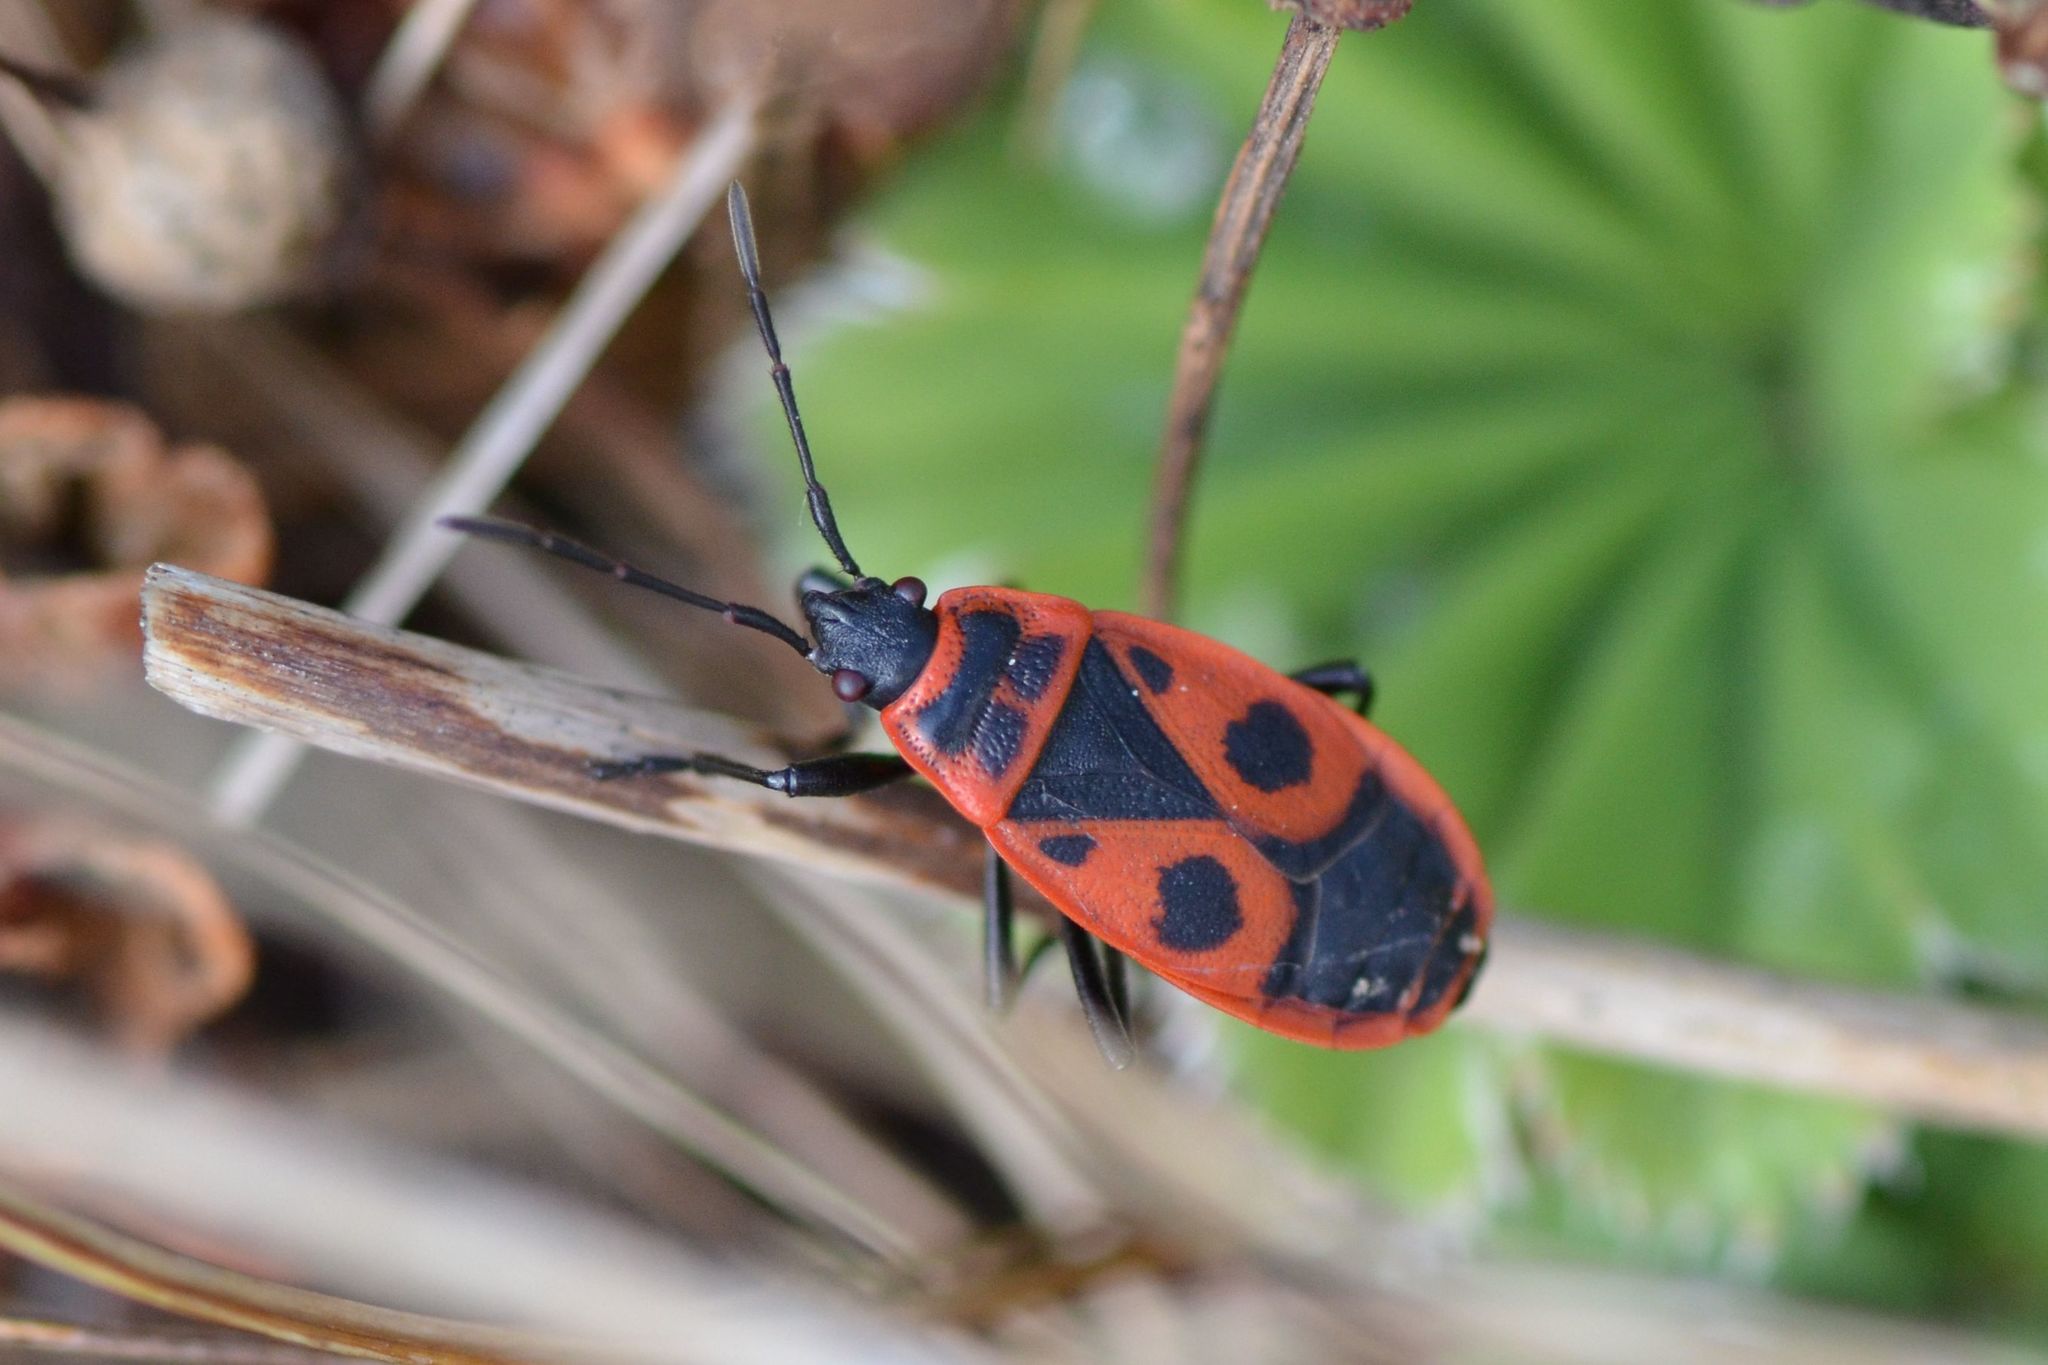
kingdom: Animalia
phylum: Arthropoda
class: Insecta
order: Hemiptera
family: Pyrrhocoridae
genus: Pyrrhocoris
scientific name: Pyrrhocoris apterus
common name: Firebug
